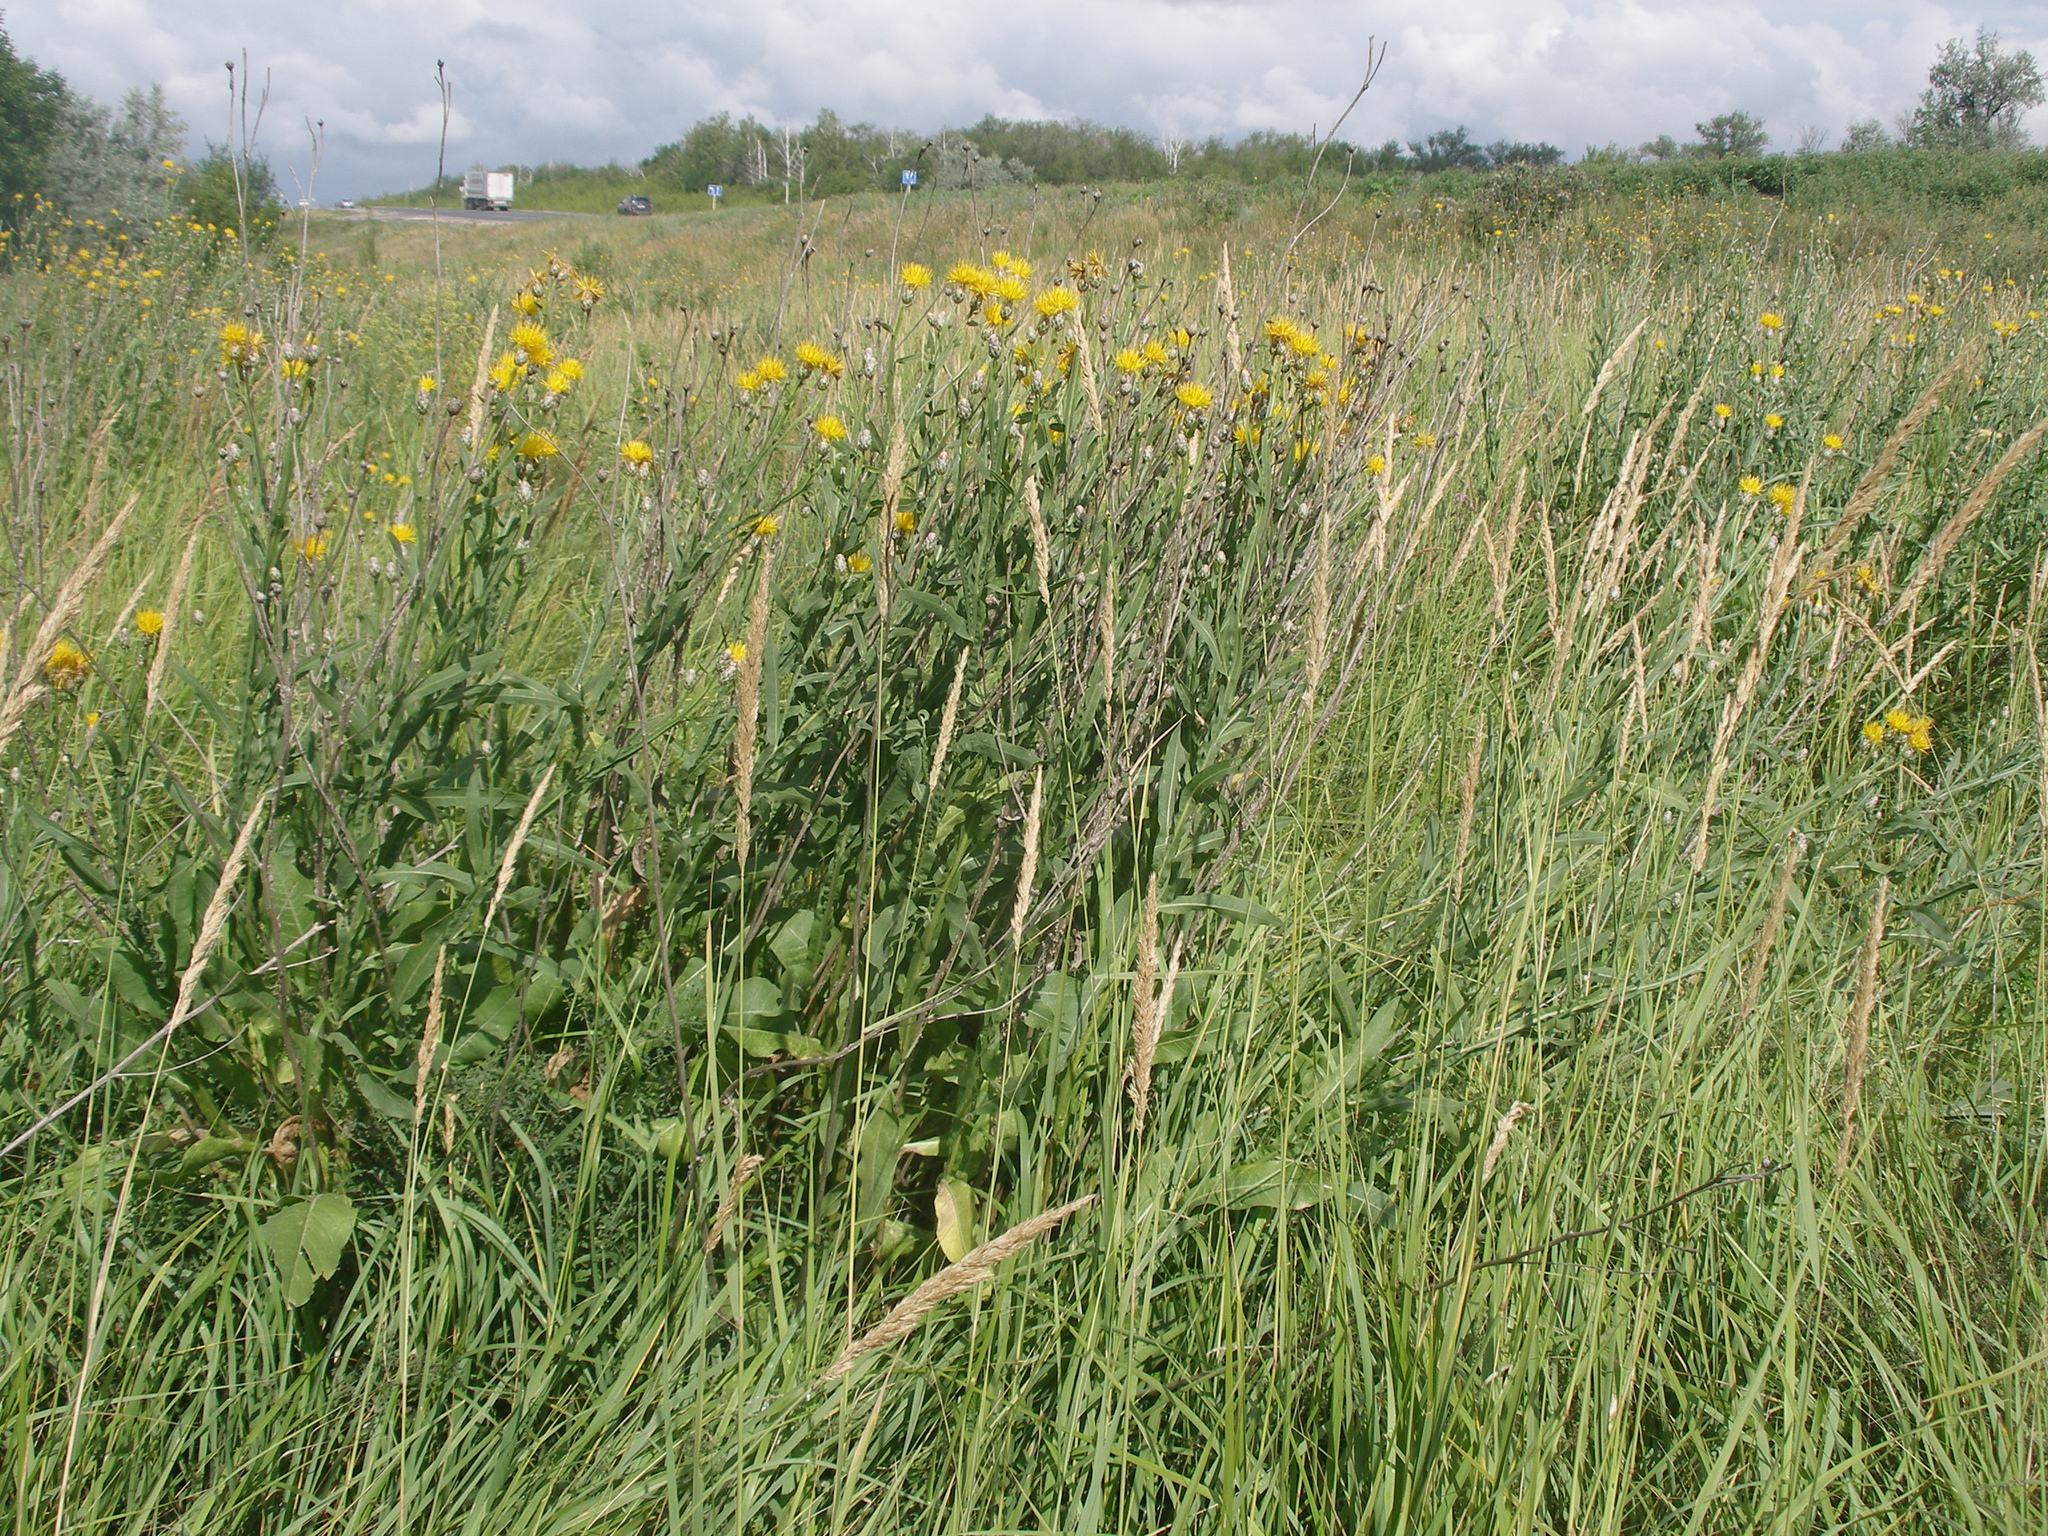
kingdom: Plantae
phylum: Tracheophyta
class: Magnoliopsida
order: Asterales
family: Asteraceae
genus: Centaurea
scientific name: Centaurea glastifolia
